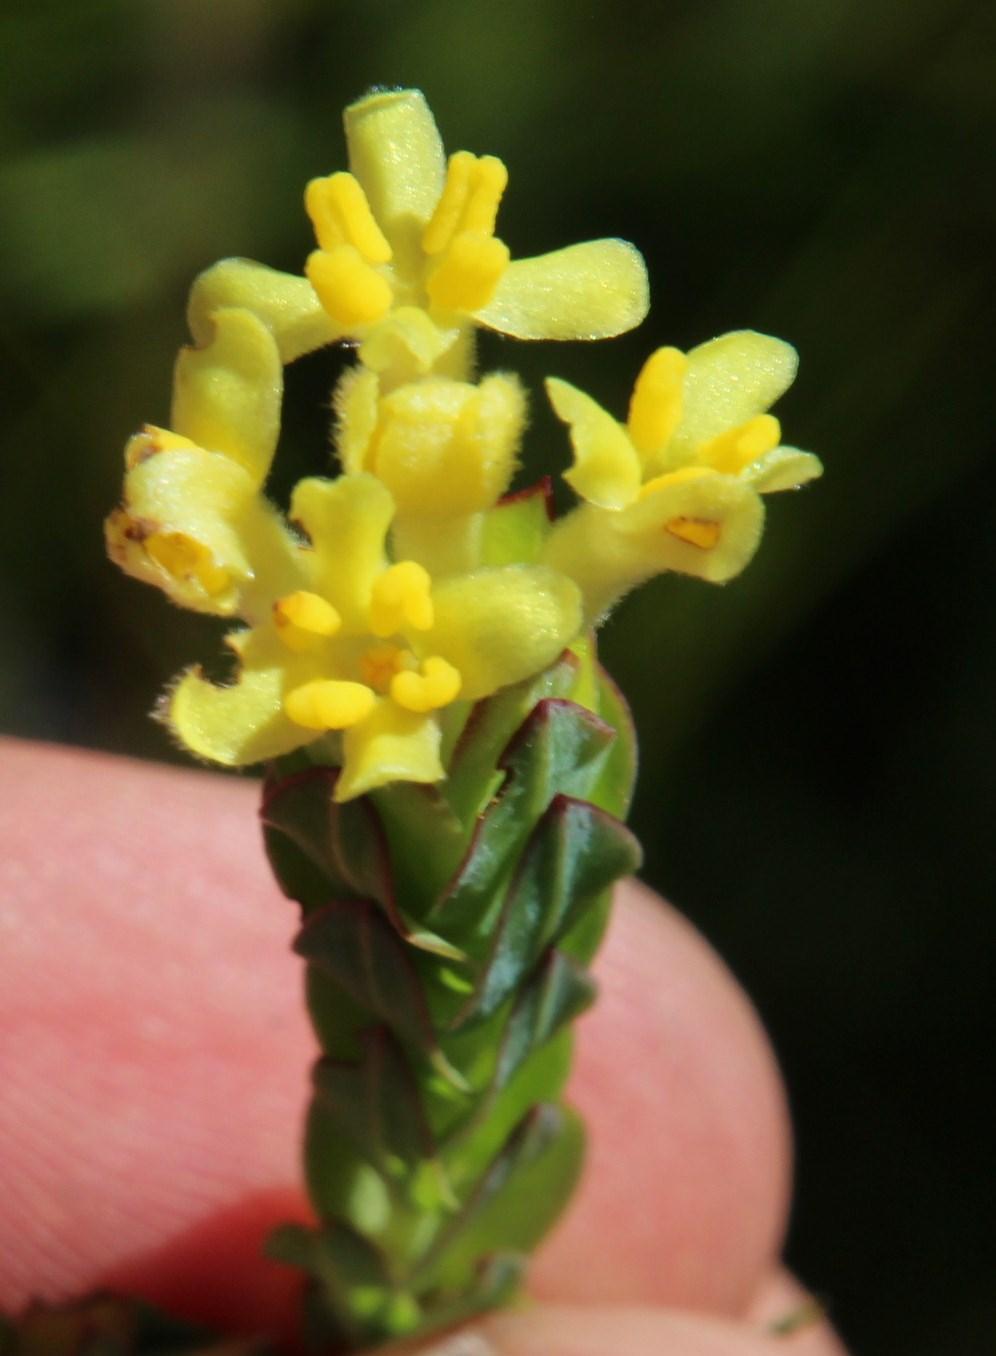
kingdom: Plantae
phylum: Tracheophyta
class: Magnoliopsida
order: Malvales
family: Thymelaeaceae
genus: Gnidia
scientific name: Gnidia oppositifolia
